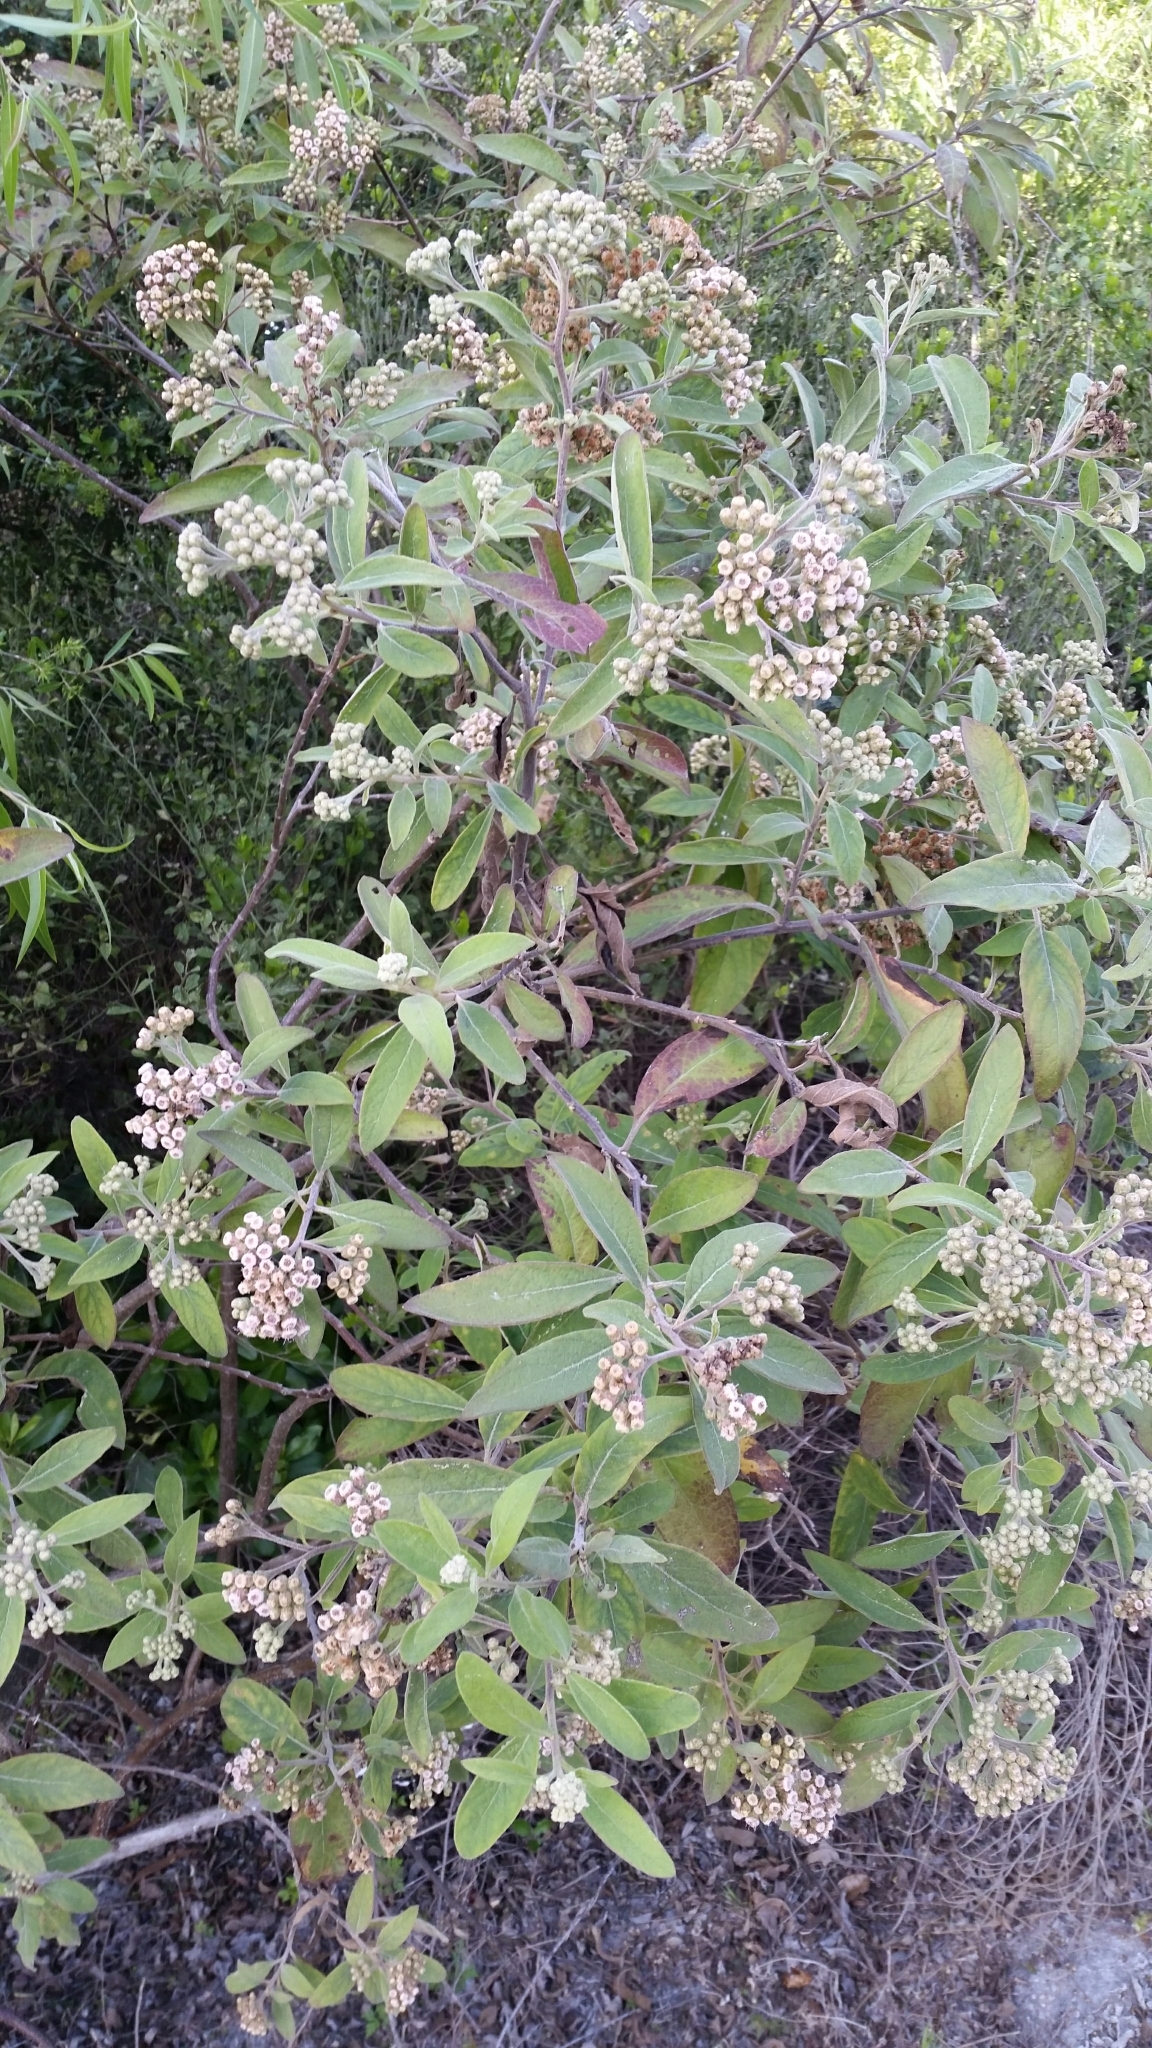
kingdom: Plantae
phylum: Tracheophyta
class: Magnoliopsida
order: Asterales
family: Asteraceae
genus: Pluchea
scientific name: Pluchea carolinensis
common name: Marsh fleabane
